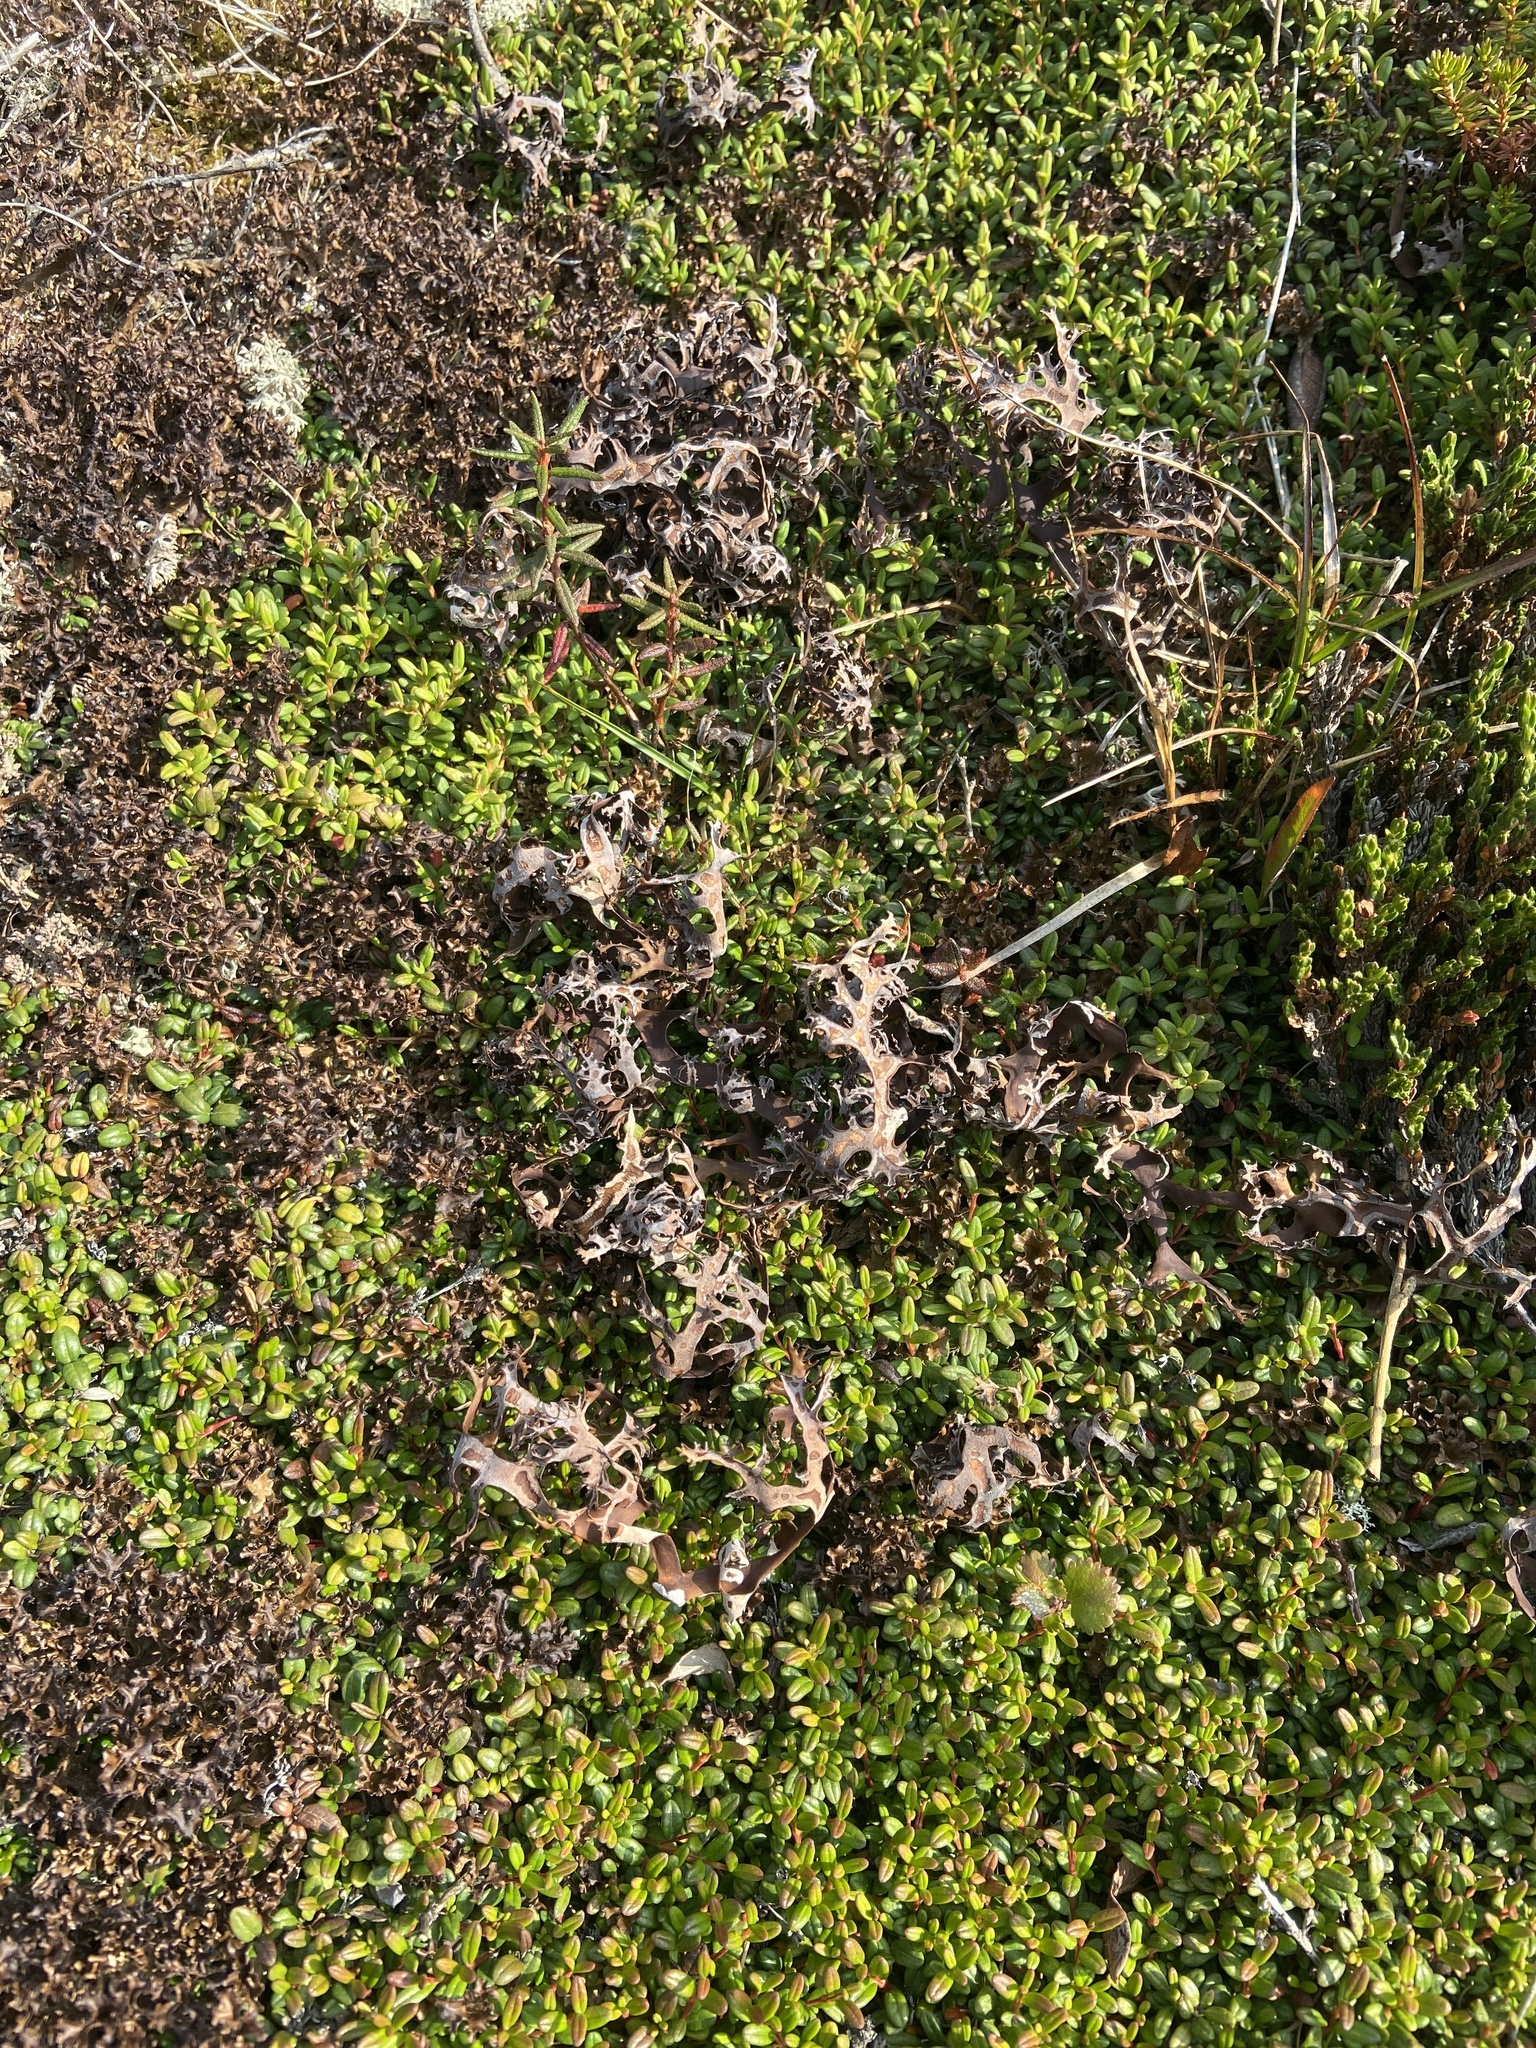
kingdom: Fungi
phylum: Ascomycota
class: Lecanoromycetes
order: Lecanorales
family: Parmeliaceae
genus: Nephromopsis
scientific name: Nephromopsis richardsonii
